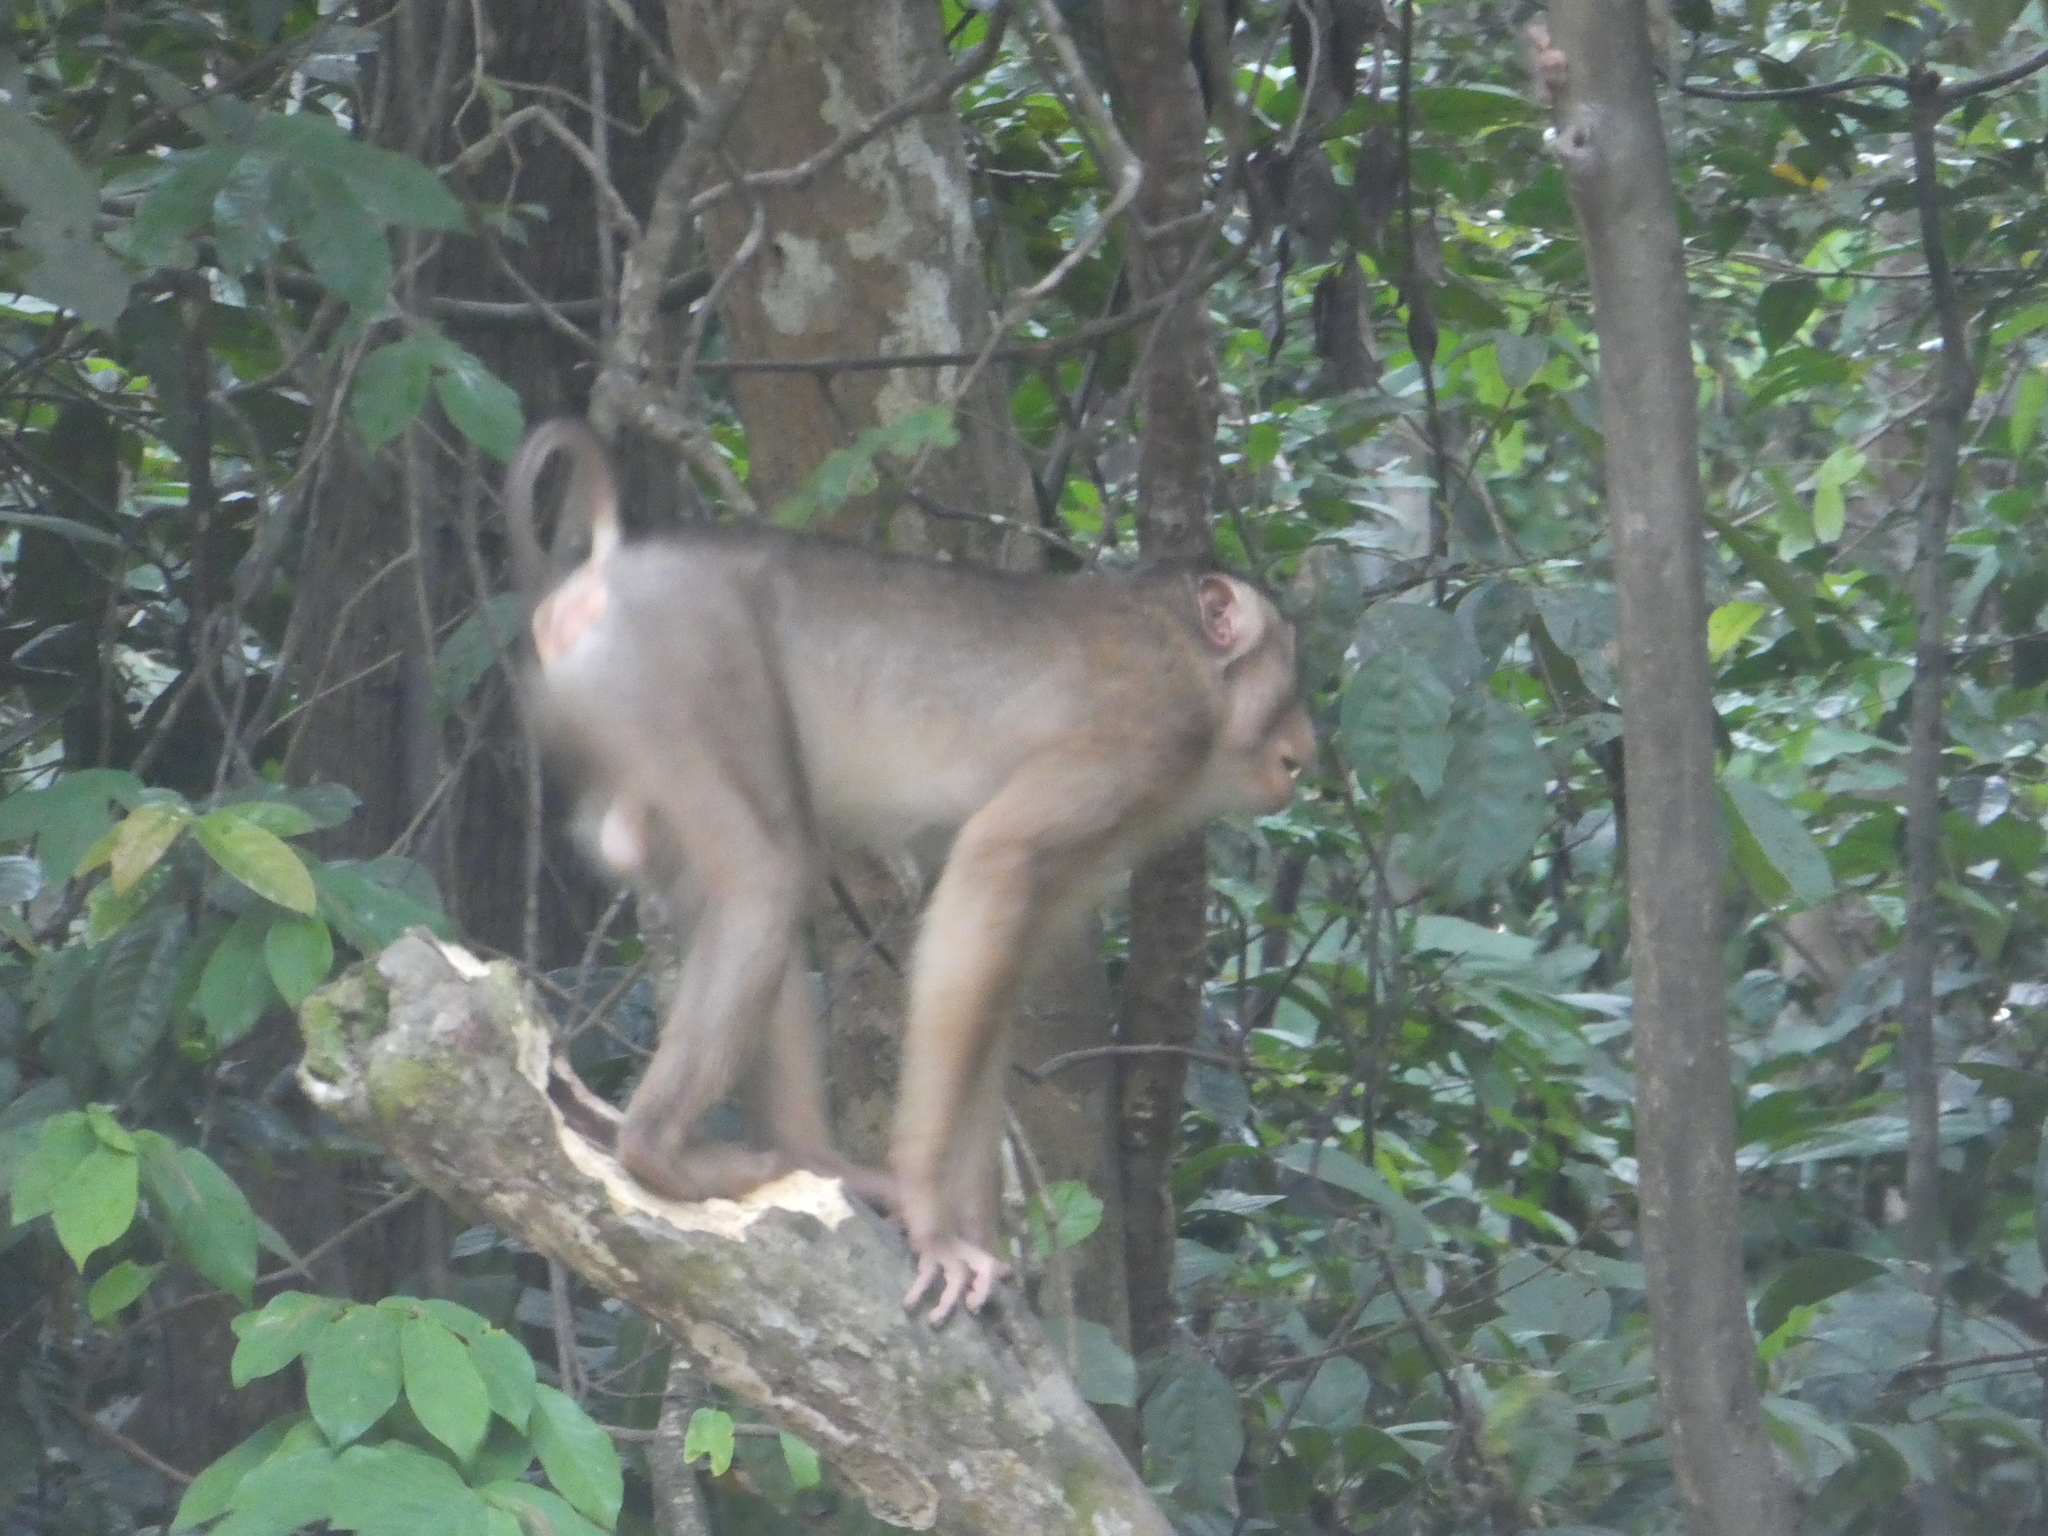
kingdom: Animalia
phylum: Chordata
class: Mammalia
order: Primates
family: Cercopithecidae
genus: Macaca
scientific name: Macaca nemestrina
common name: Southern pig-tailed macaque
